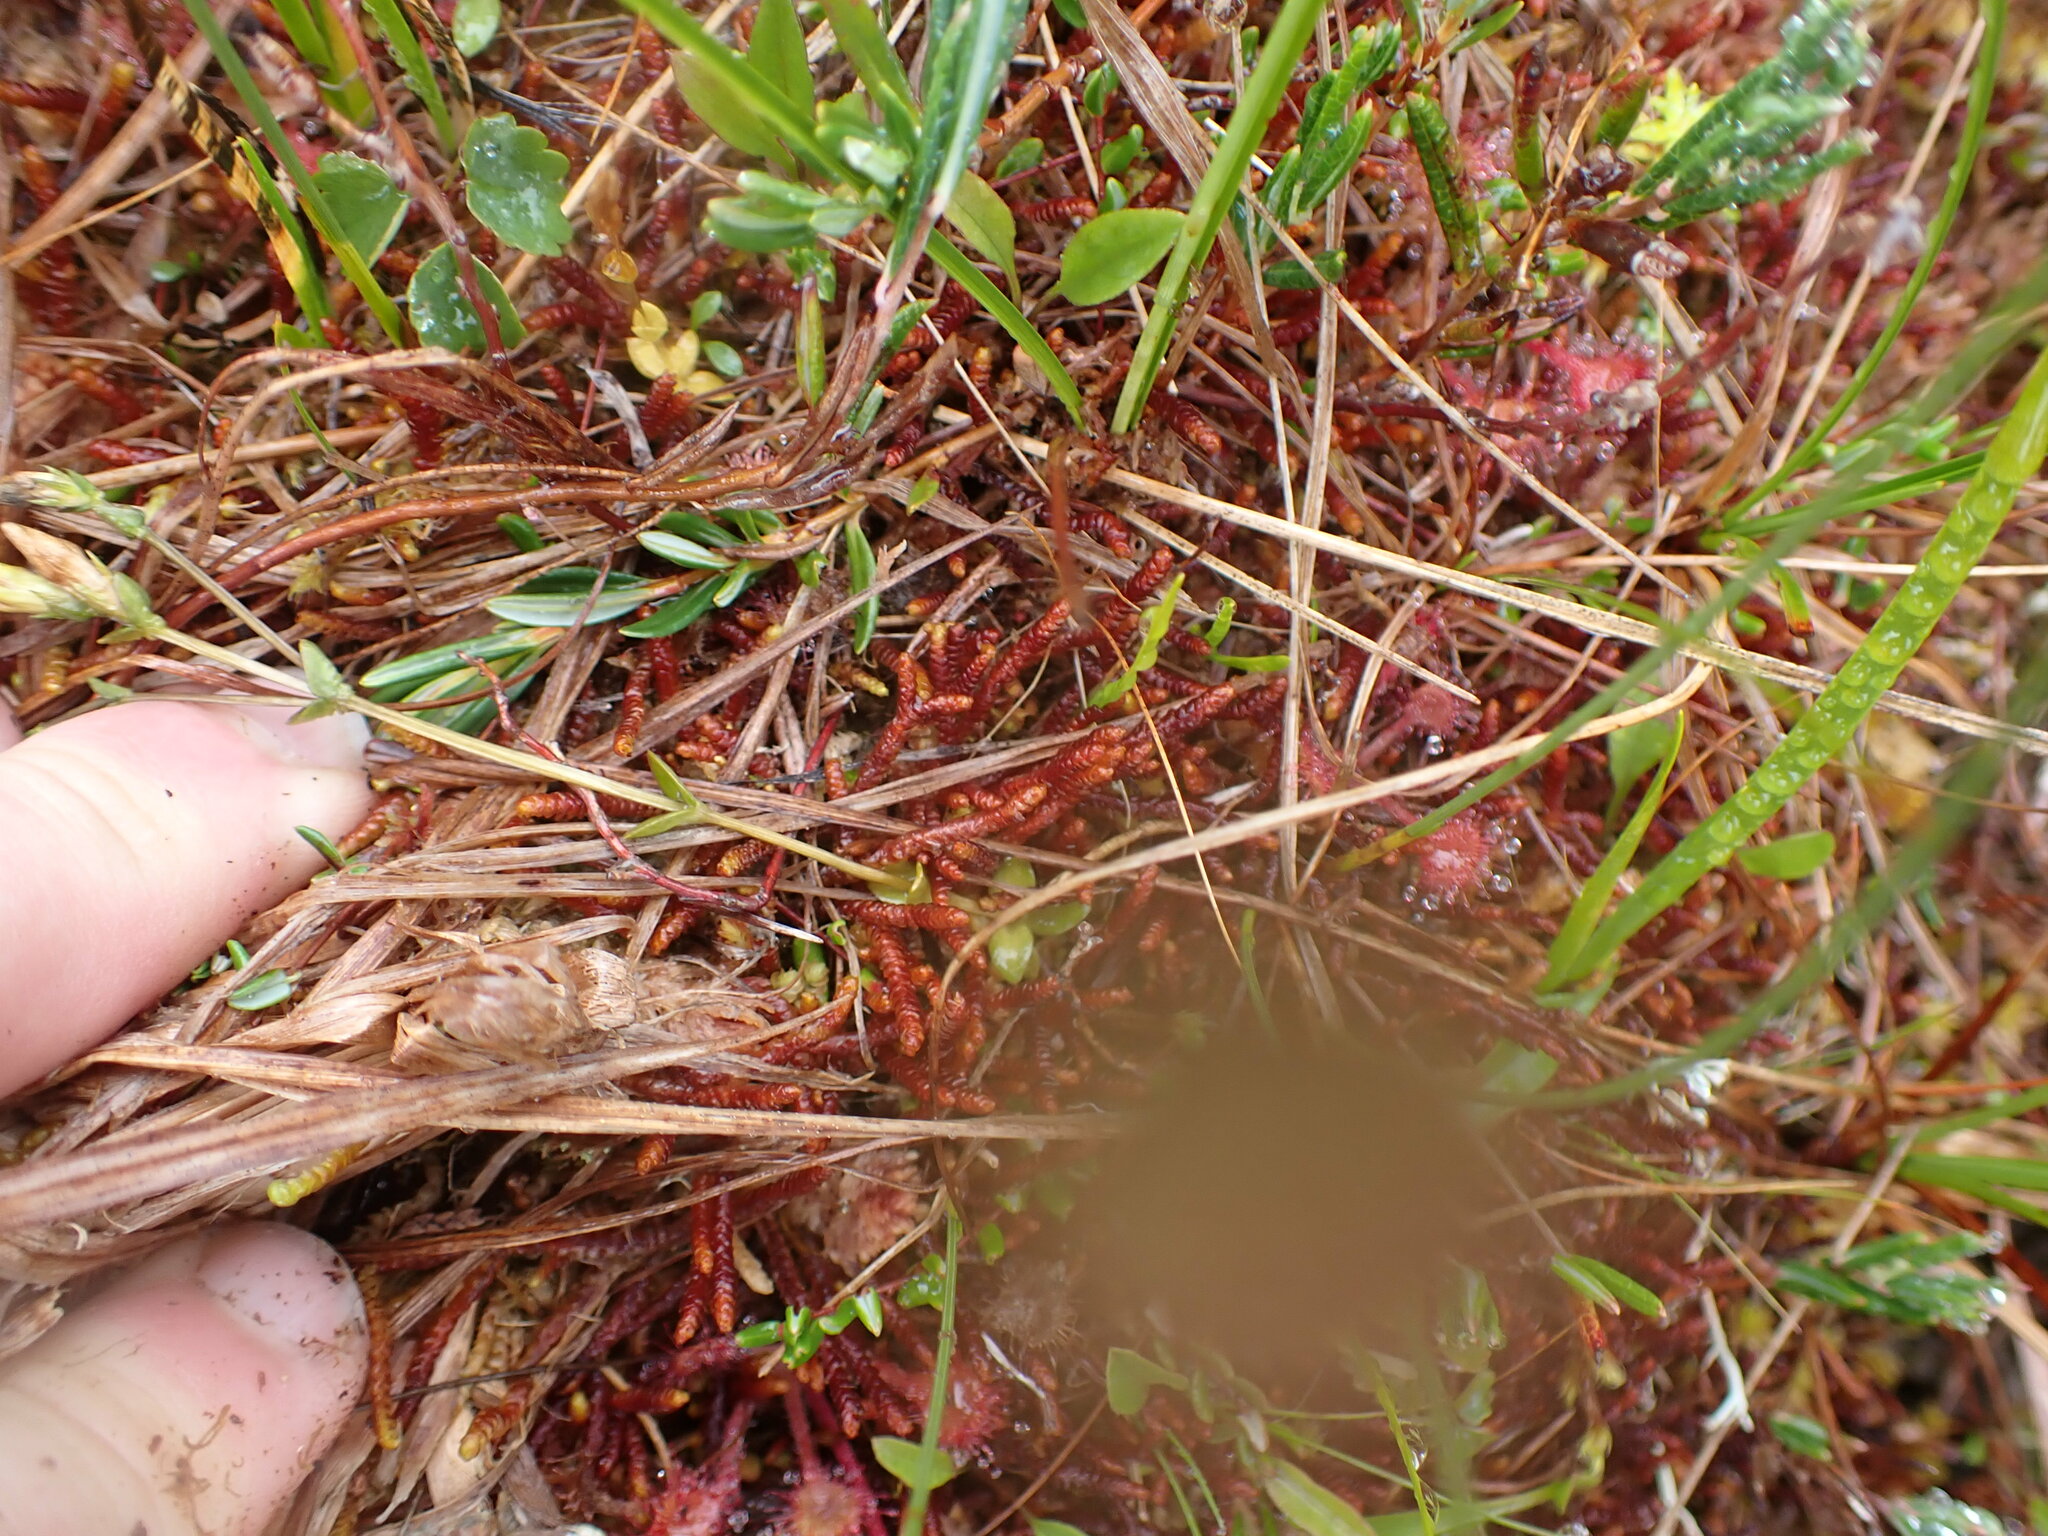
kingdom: Plantae
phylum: Marchantiophyta
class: Jungermanniopsida
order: Pleuroziales
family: Pleuroziaceae
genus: Pleurozia
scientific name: Pleurozia purpurea
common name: Purple spoonwort
